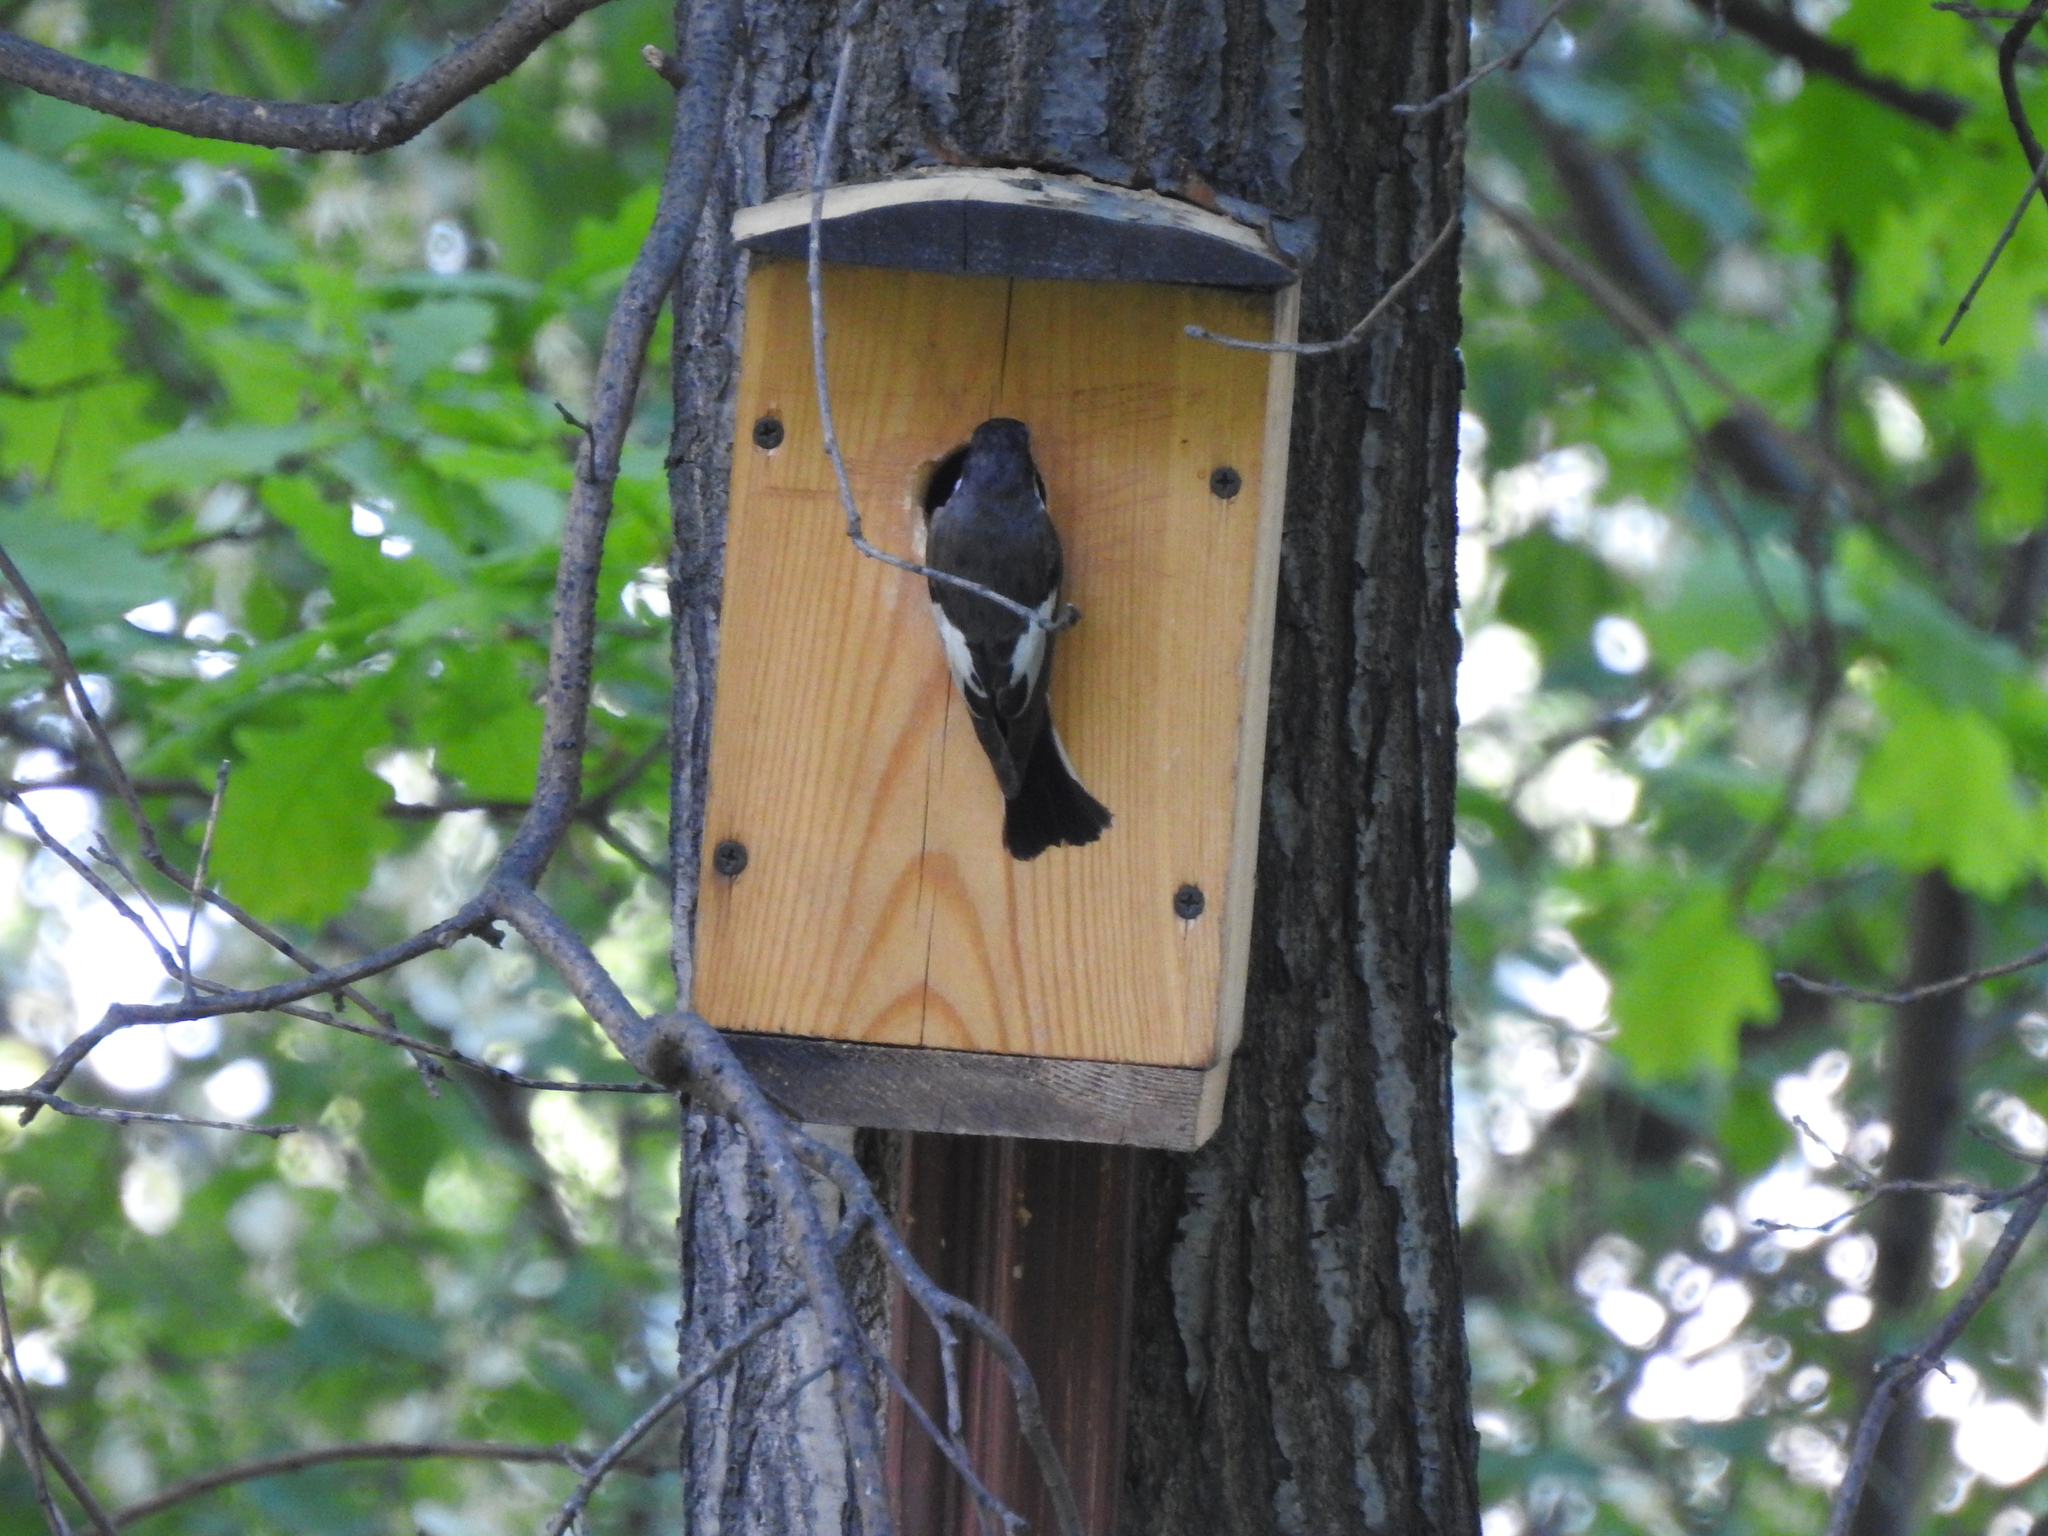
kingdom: Animalia
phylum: Chordata
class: Aves
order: Passeriformes
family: Muscicapidae
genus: Ficedula
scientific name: Ficedula hypoleuca
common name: European pied flycatcher
